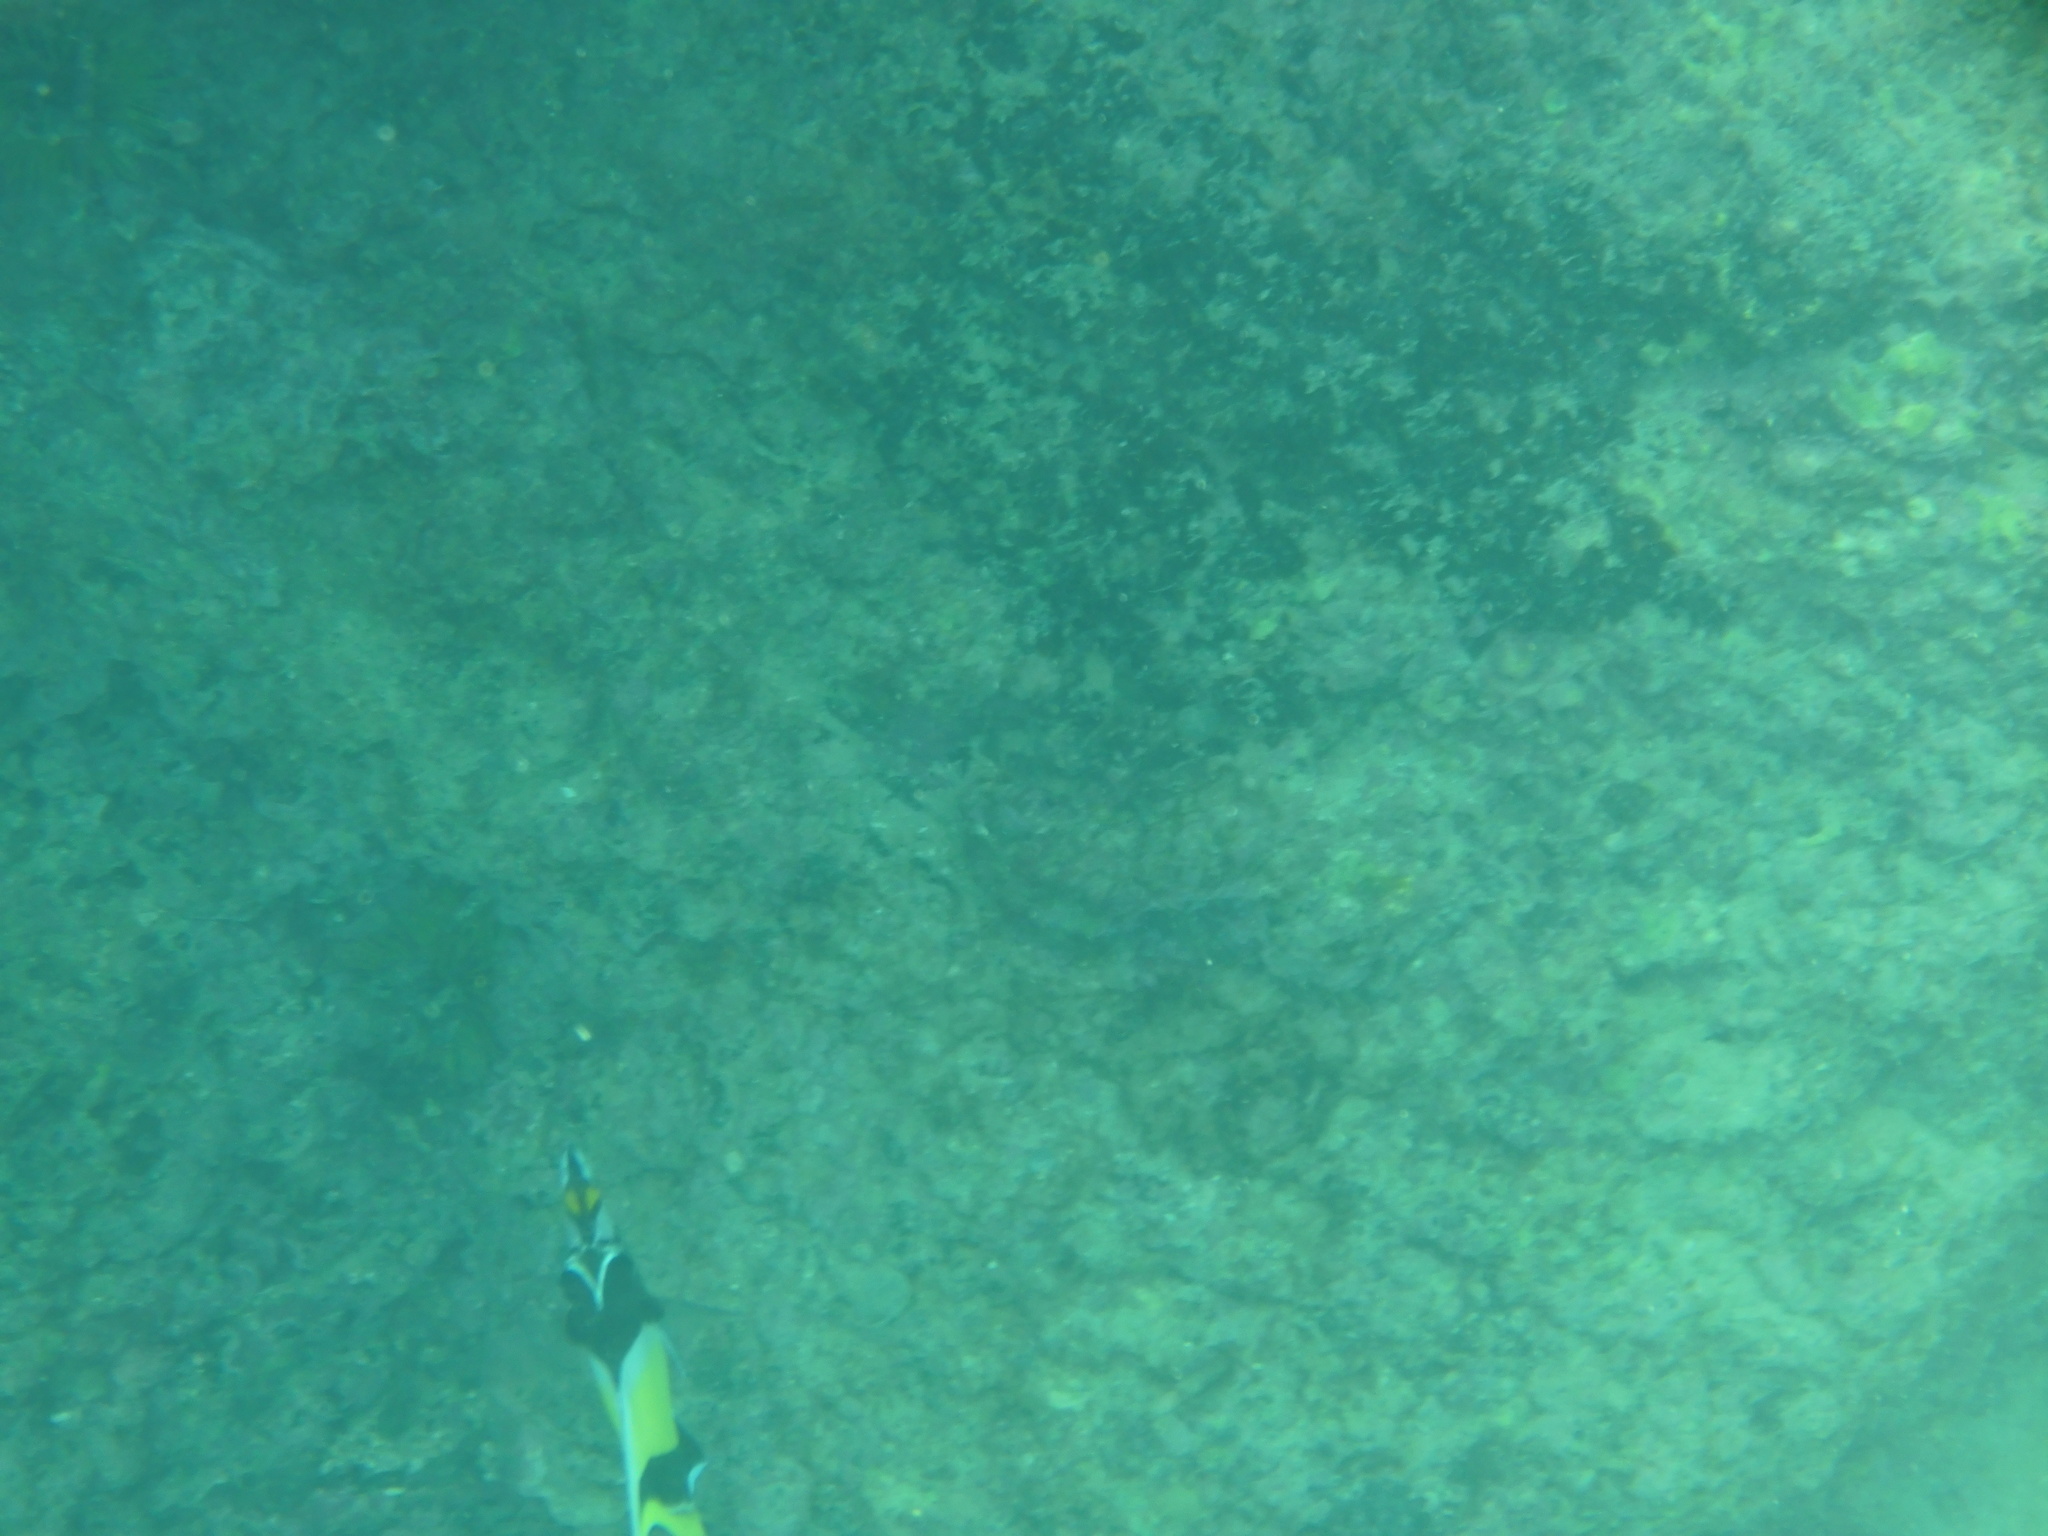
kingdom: Animalia
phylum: Chordata
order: Perciformes
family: Zanclidae
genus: Zanclus
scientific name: Zanclus cornutus
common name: Moorish idol
